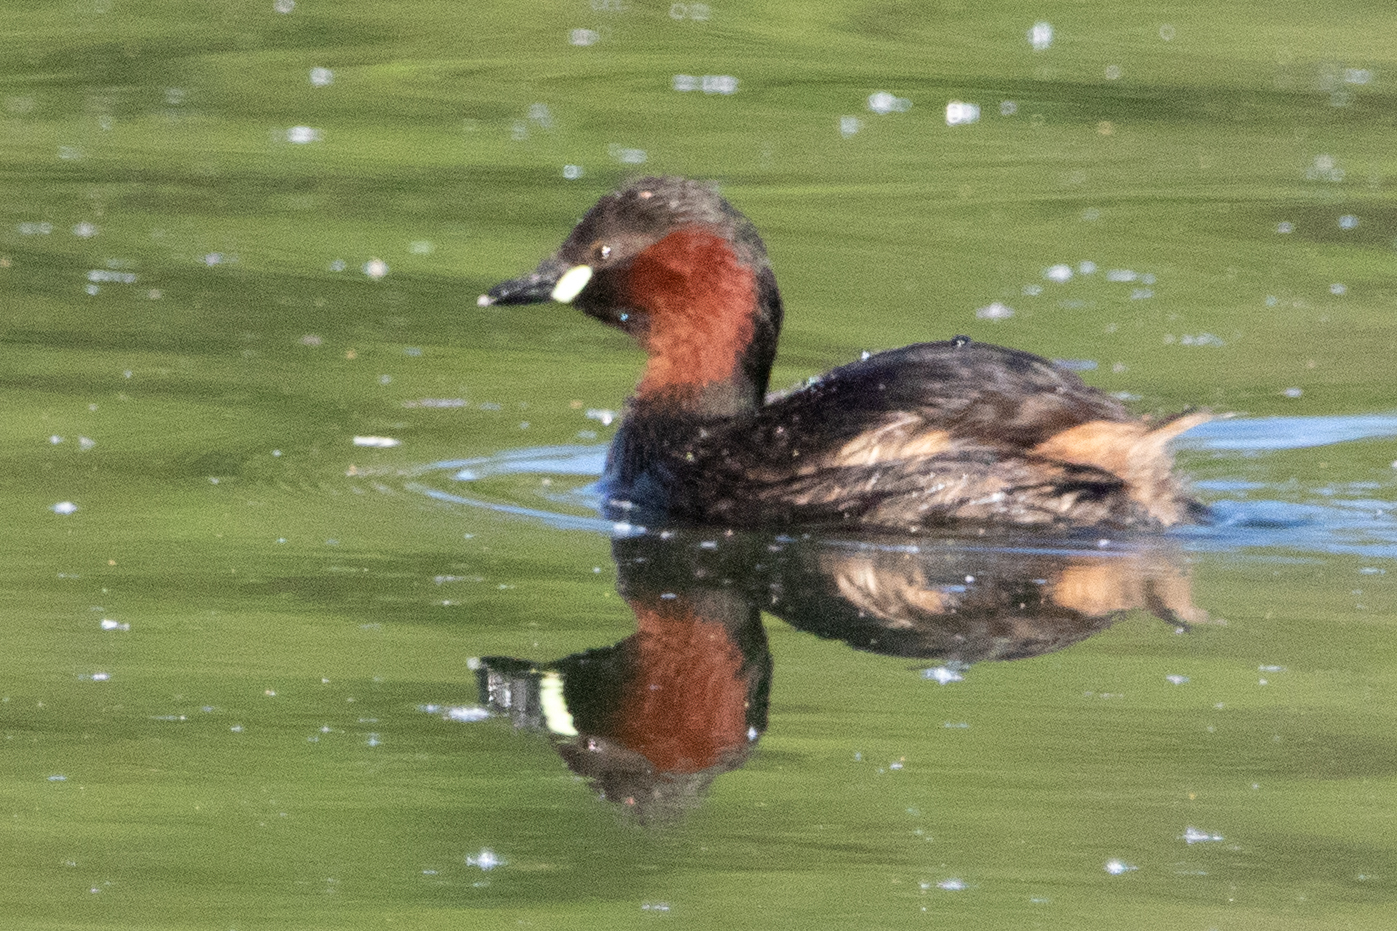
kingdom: Animalia
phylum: Chordata
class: Aves
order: Podicipediformes
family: Podicipedidae
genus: Tachybaptus
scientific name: Tachybaptus ruficollis
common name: Little grebe
